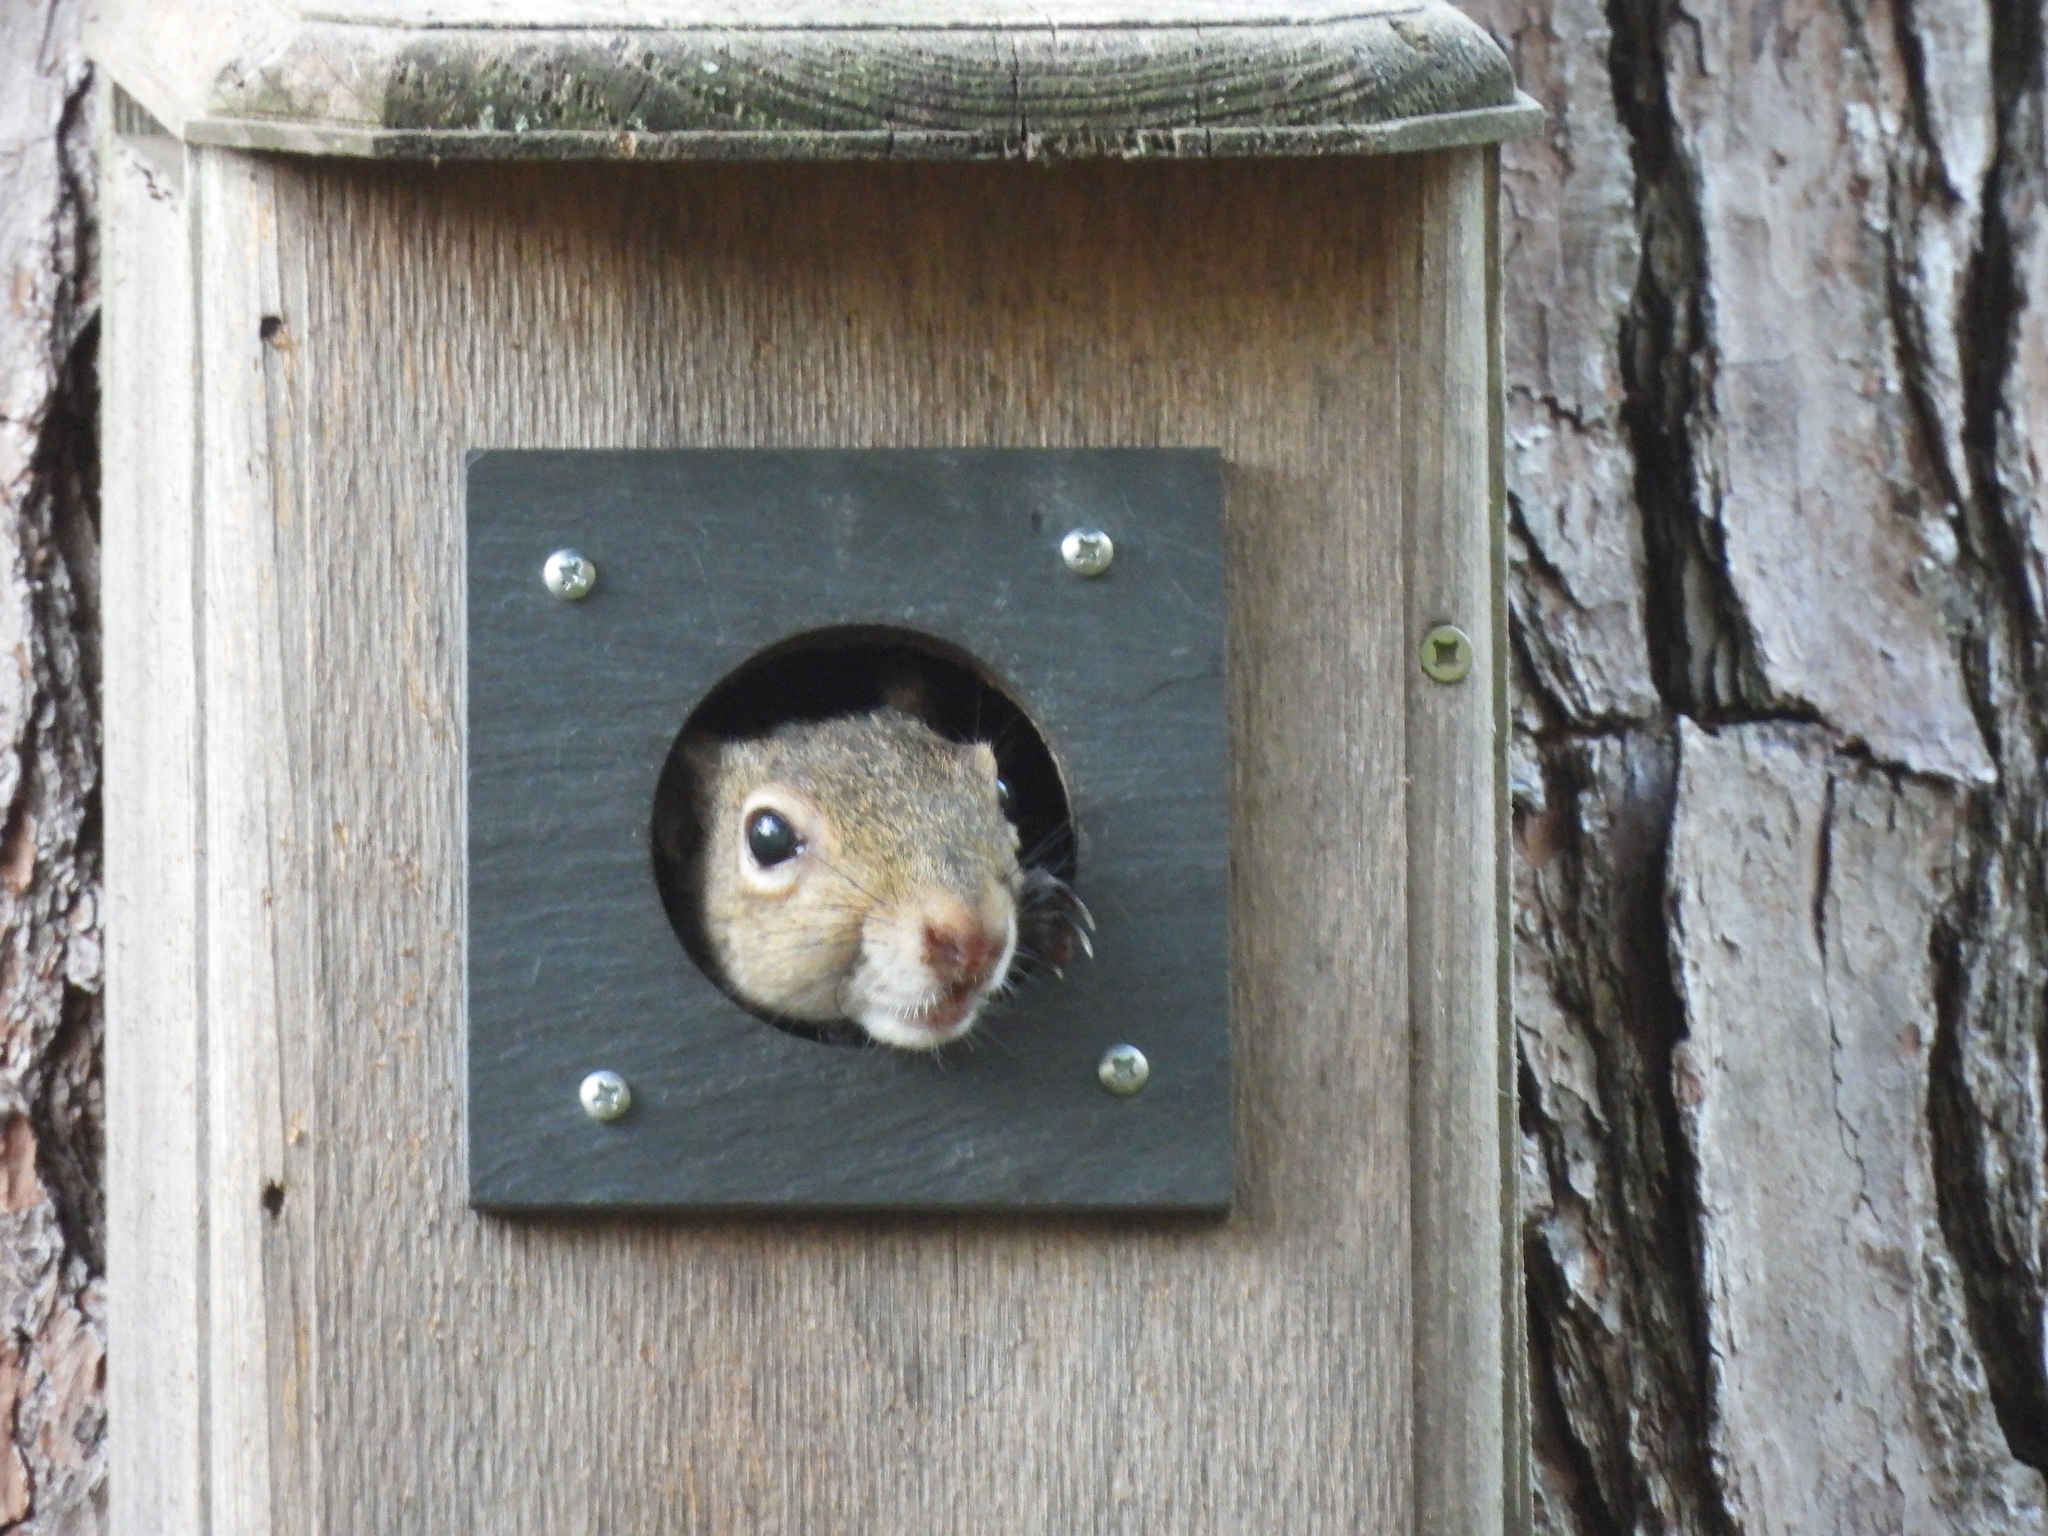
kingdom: Animalia
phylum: Chordata
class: Mammalia
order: Rodentia
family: Sciuridae
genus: Sciurus
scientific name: Sciurus carolinensis
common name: Eastern gray squirrel
